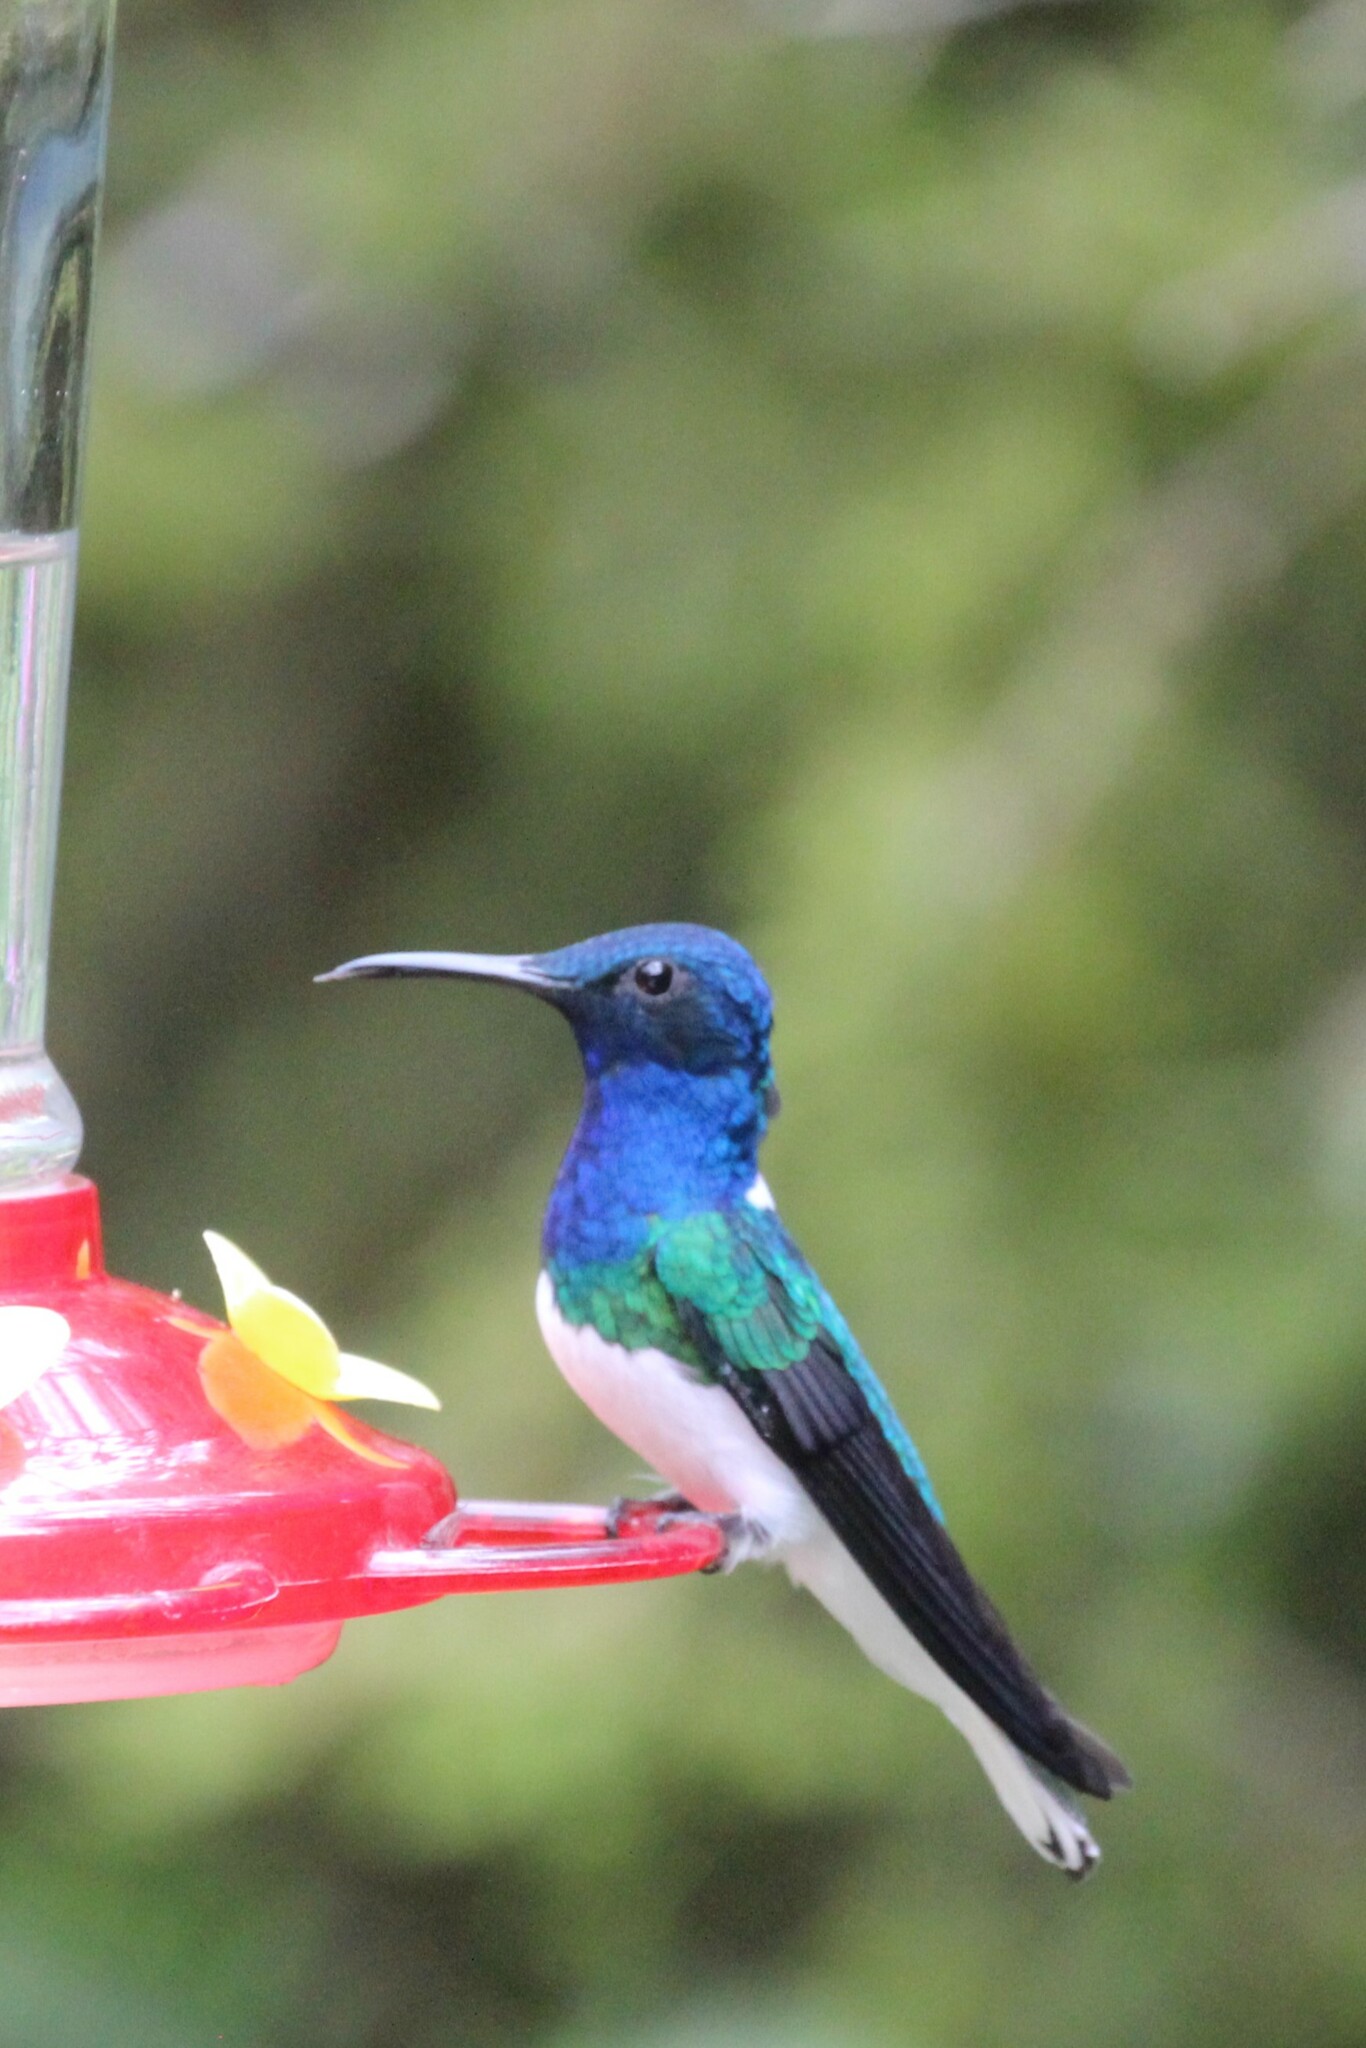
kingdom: Animalia
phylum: Chordata
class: Aves
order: Apodiformes
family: Trochilidae
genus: Florisuga
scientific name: Florisuga mellivora
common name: White-necked jacobin
